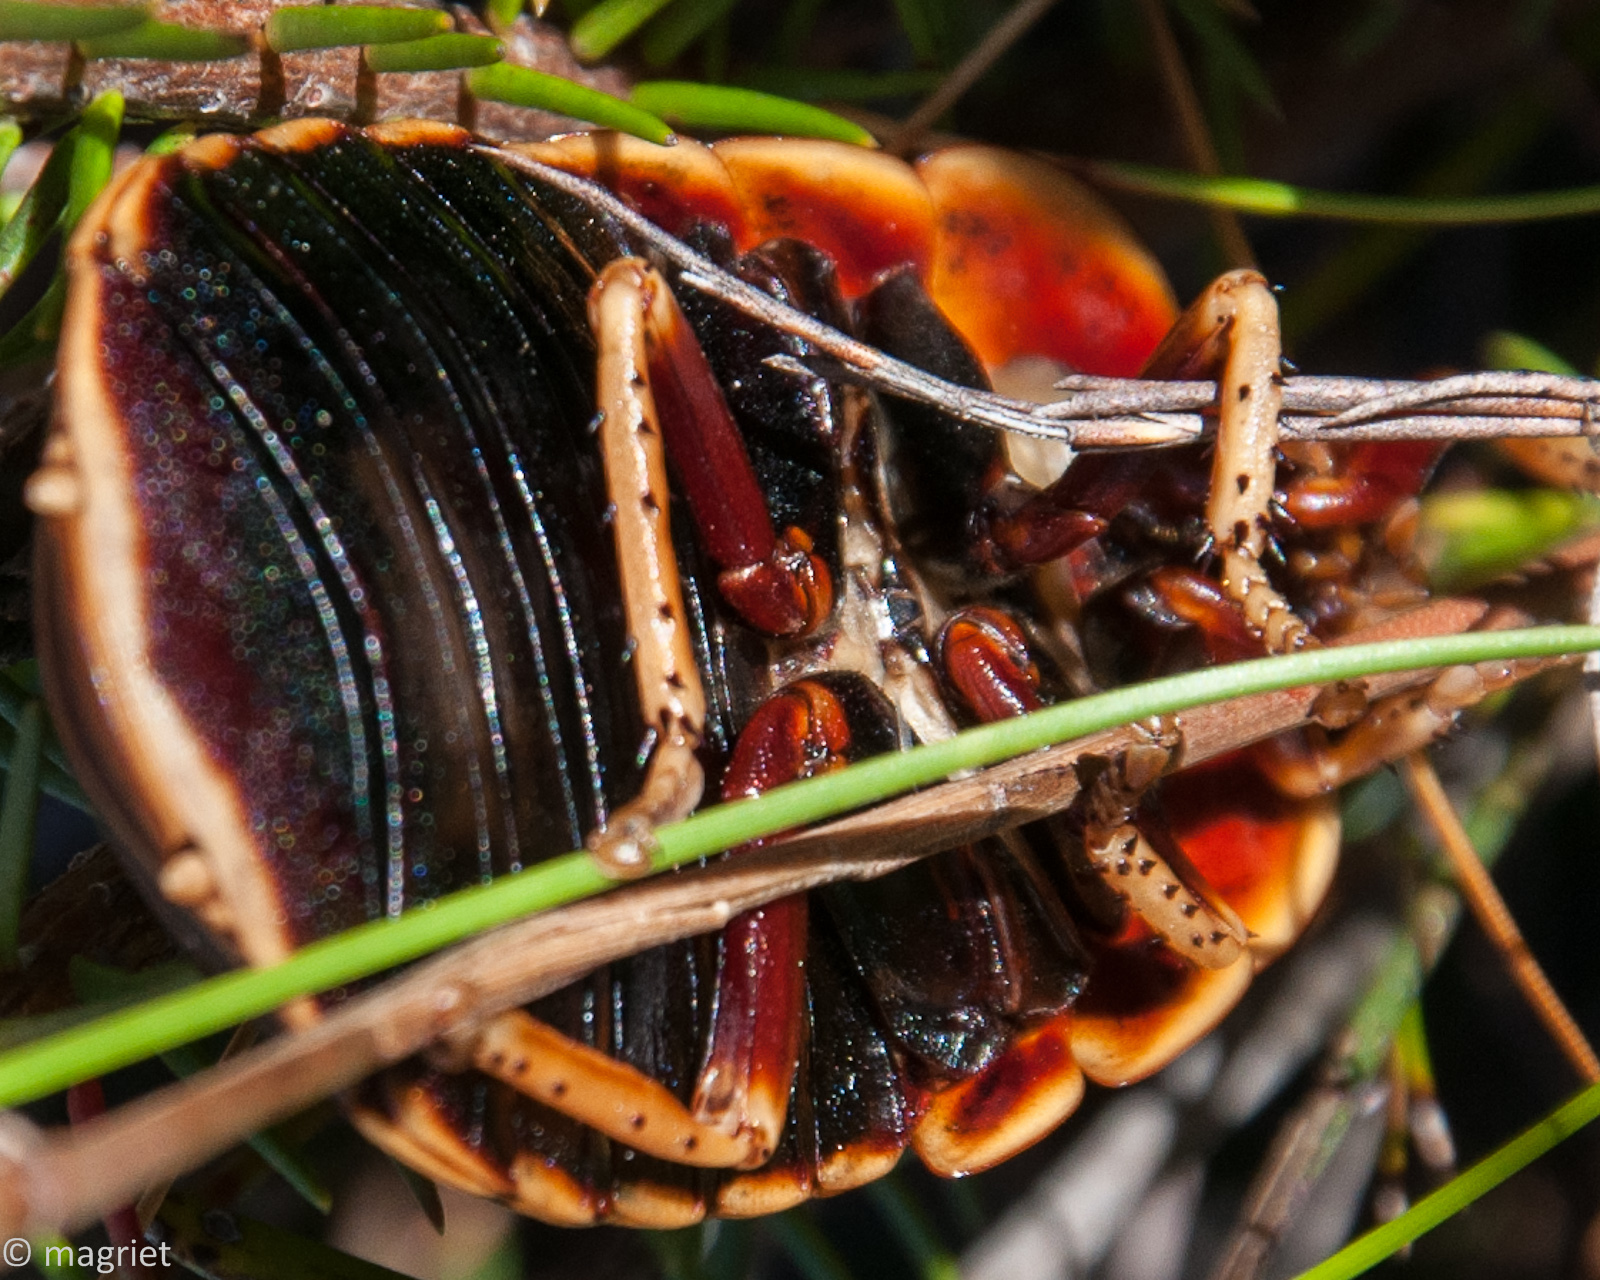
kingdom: Animalia
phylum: Arthropoda
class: Insecta
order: Blattodea
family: Blaberidae
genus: Aptera
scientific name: Aptera fusca
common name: Cape mountain cockroach
